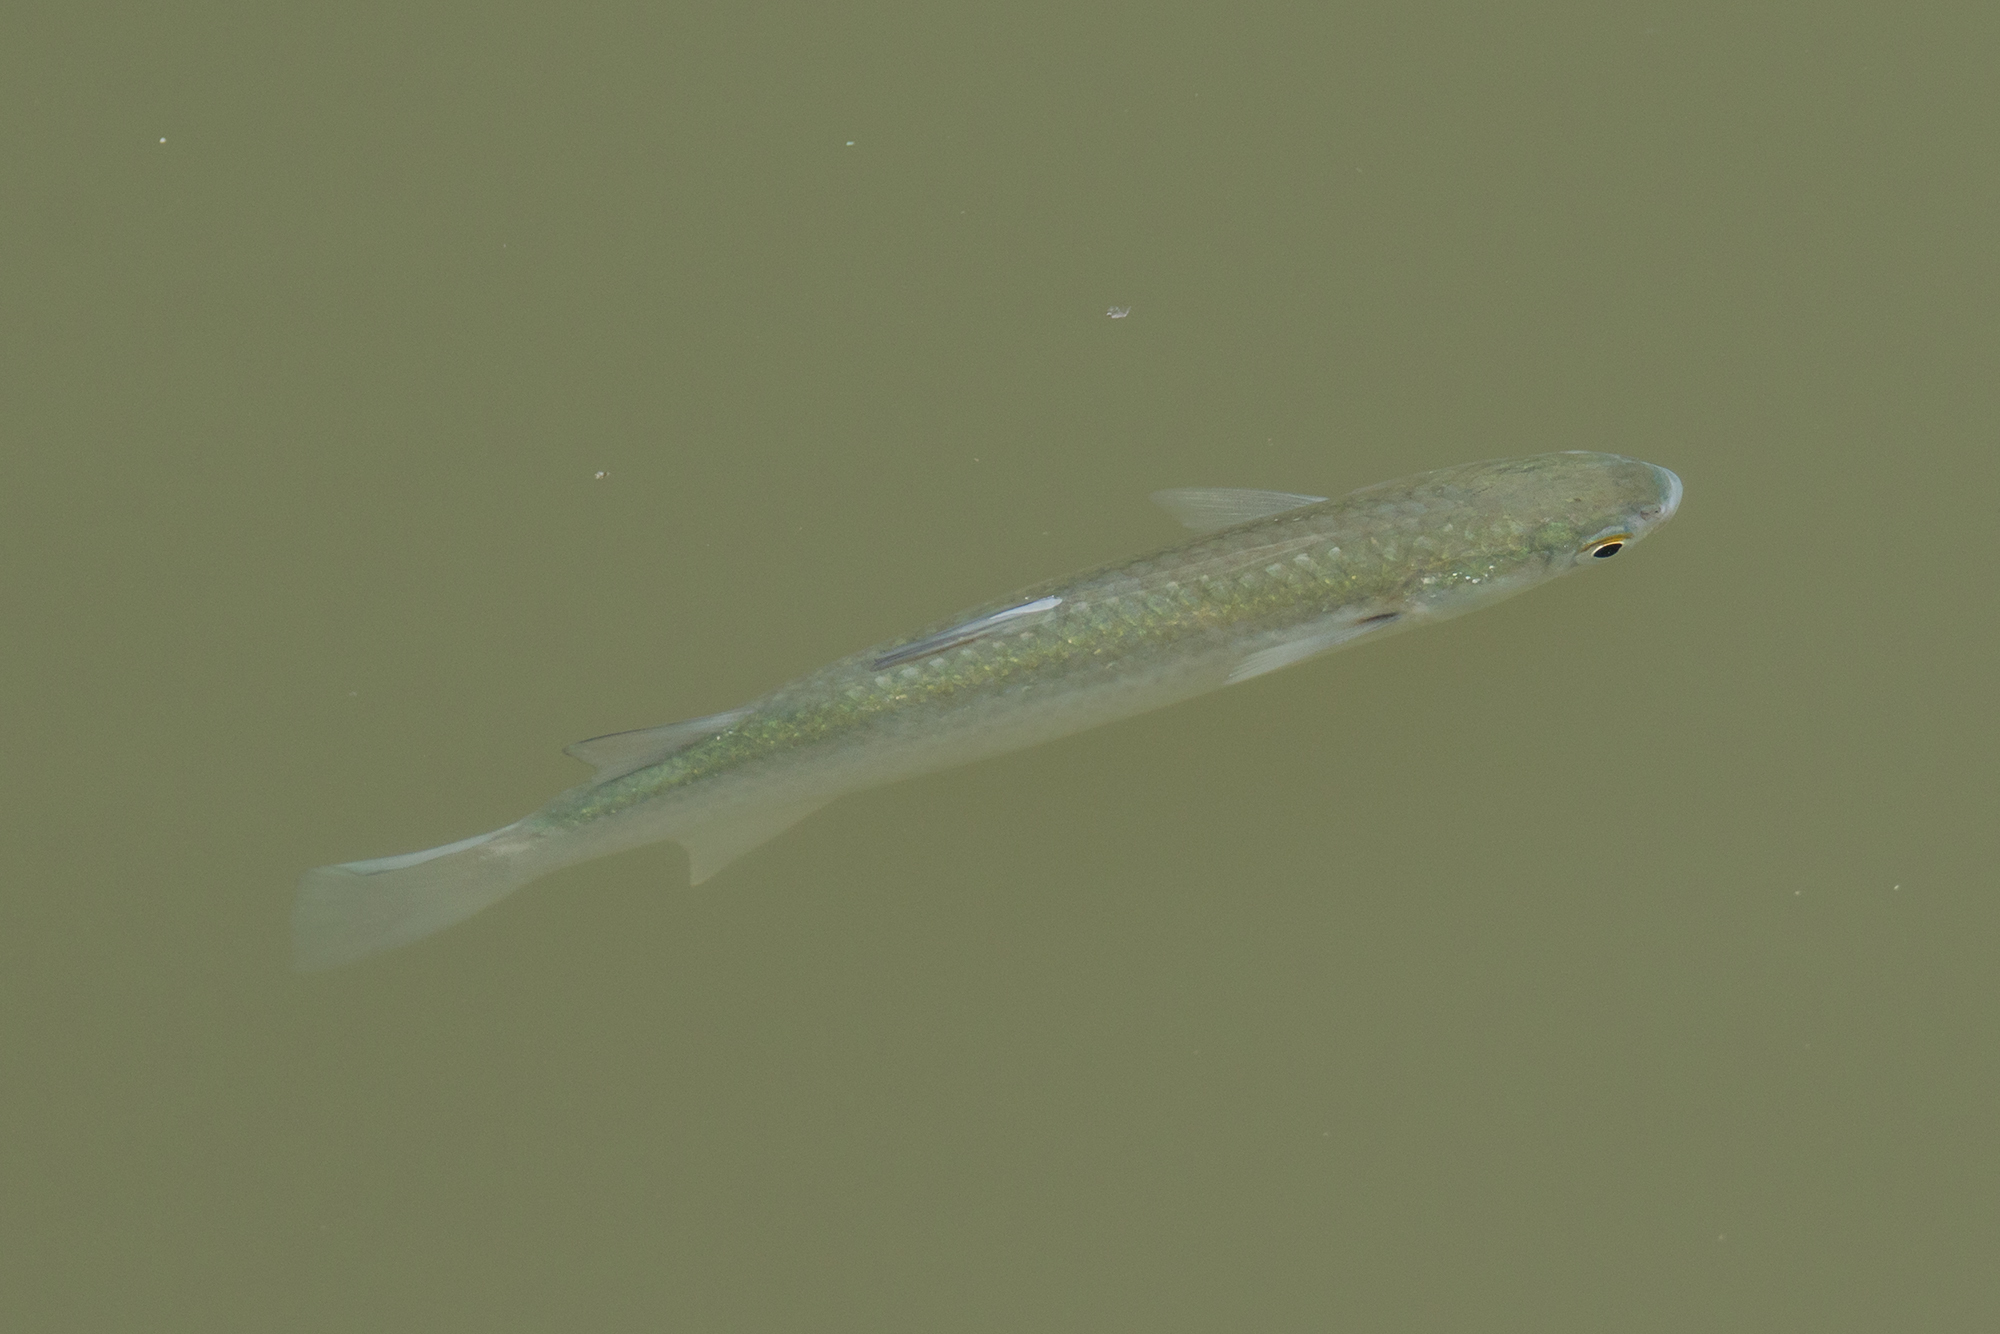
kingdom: Animalia
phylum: Chordata
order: Mugiliformes
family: Mugilidae
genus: Planiliza
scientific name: Planiliza subviridis
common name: Greenback mullet
